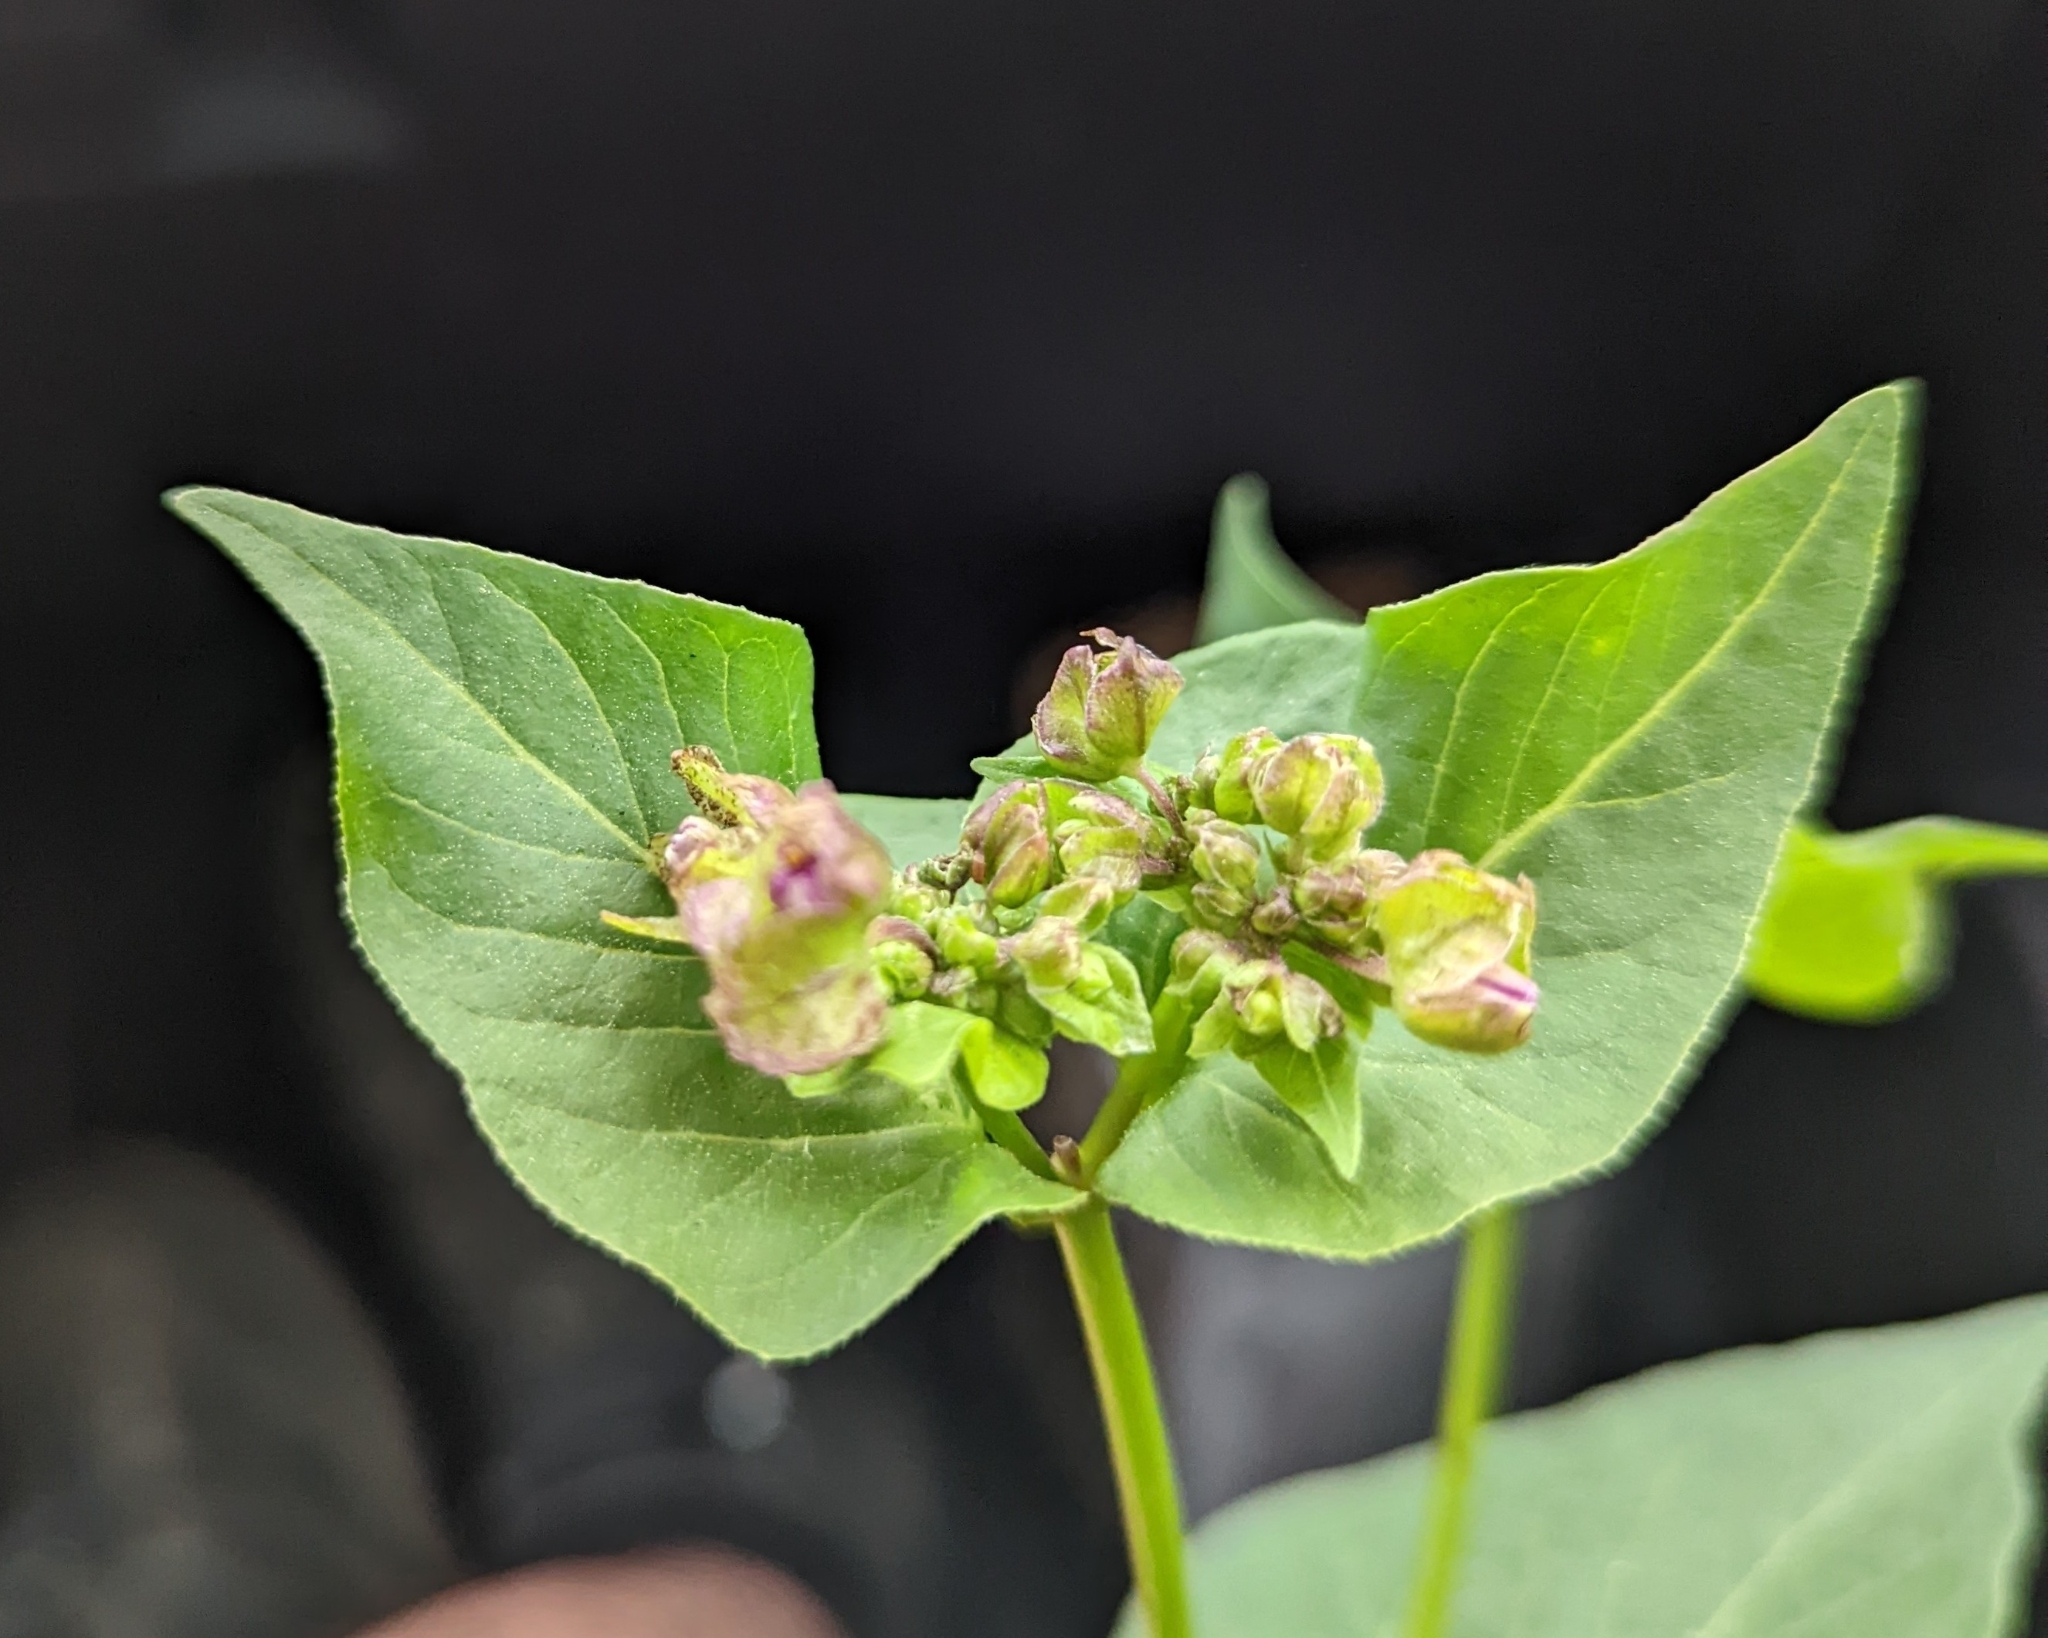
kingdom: Plantae
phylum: Tracheophyta
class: Magnoliopsida
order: Caryophyllales
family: Nyctaginaceae
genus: Mirabilis
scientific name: Mirabilis nyctaginea
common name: Umbrella wort
